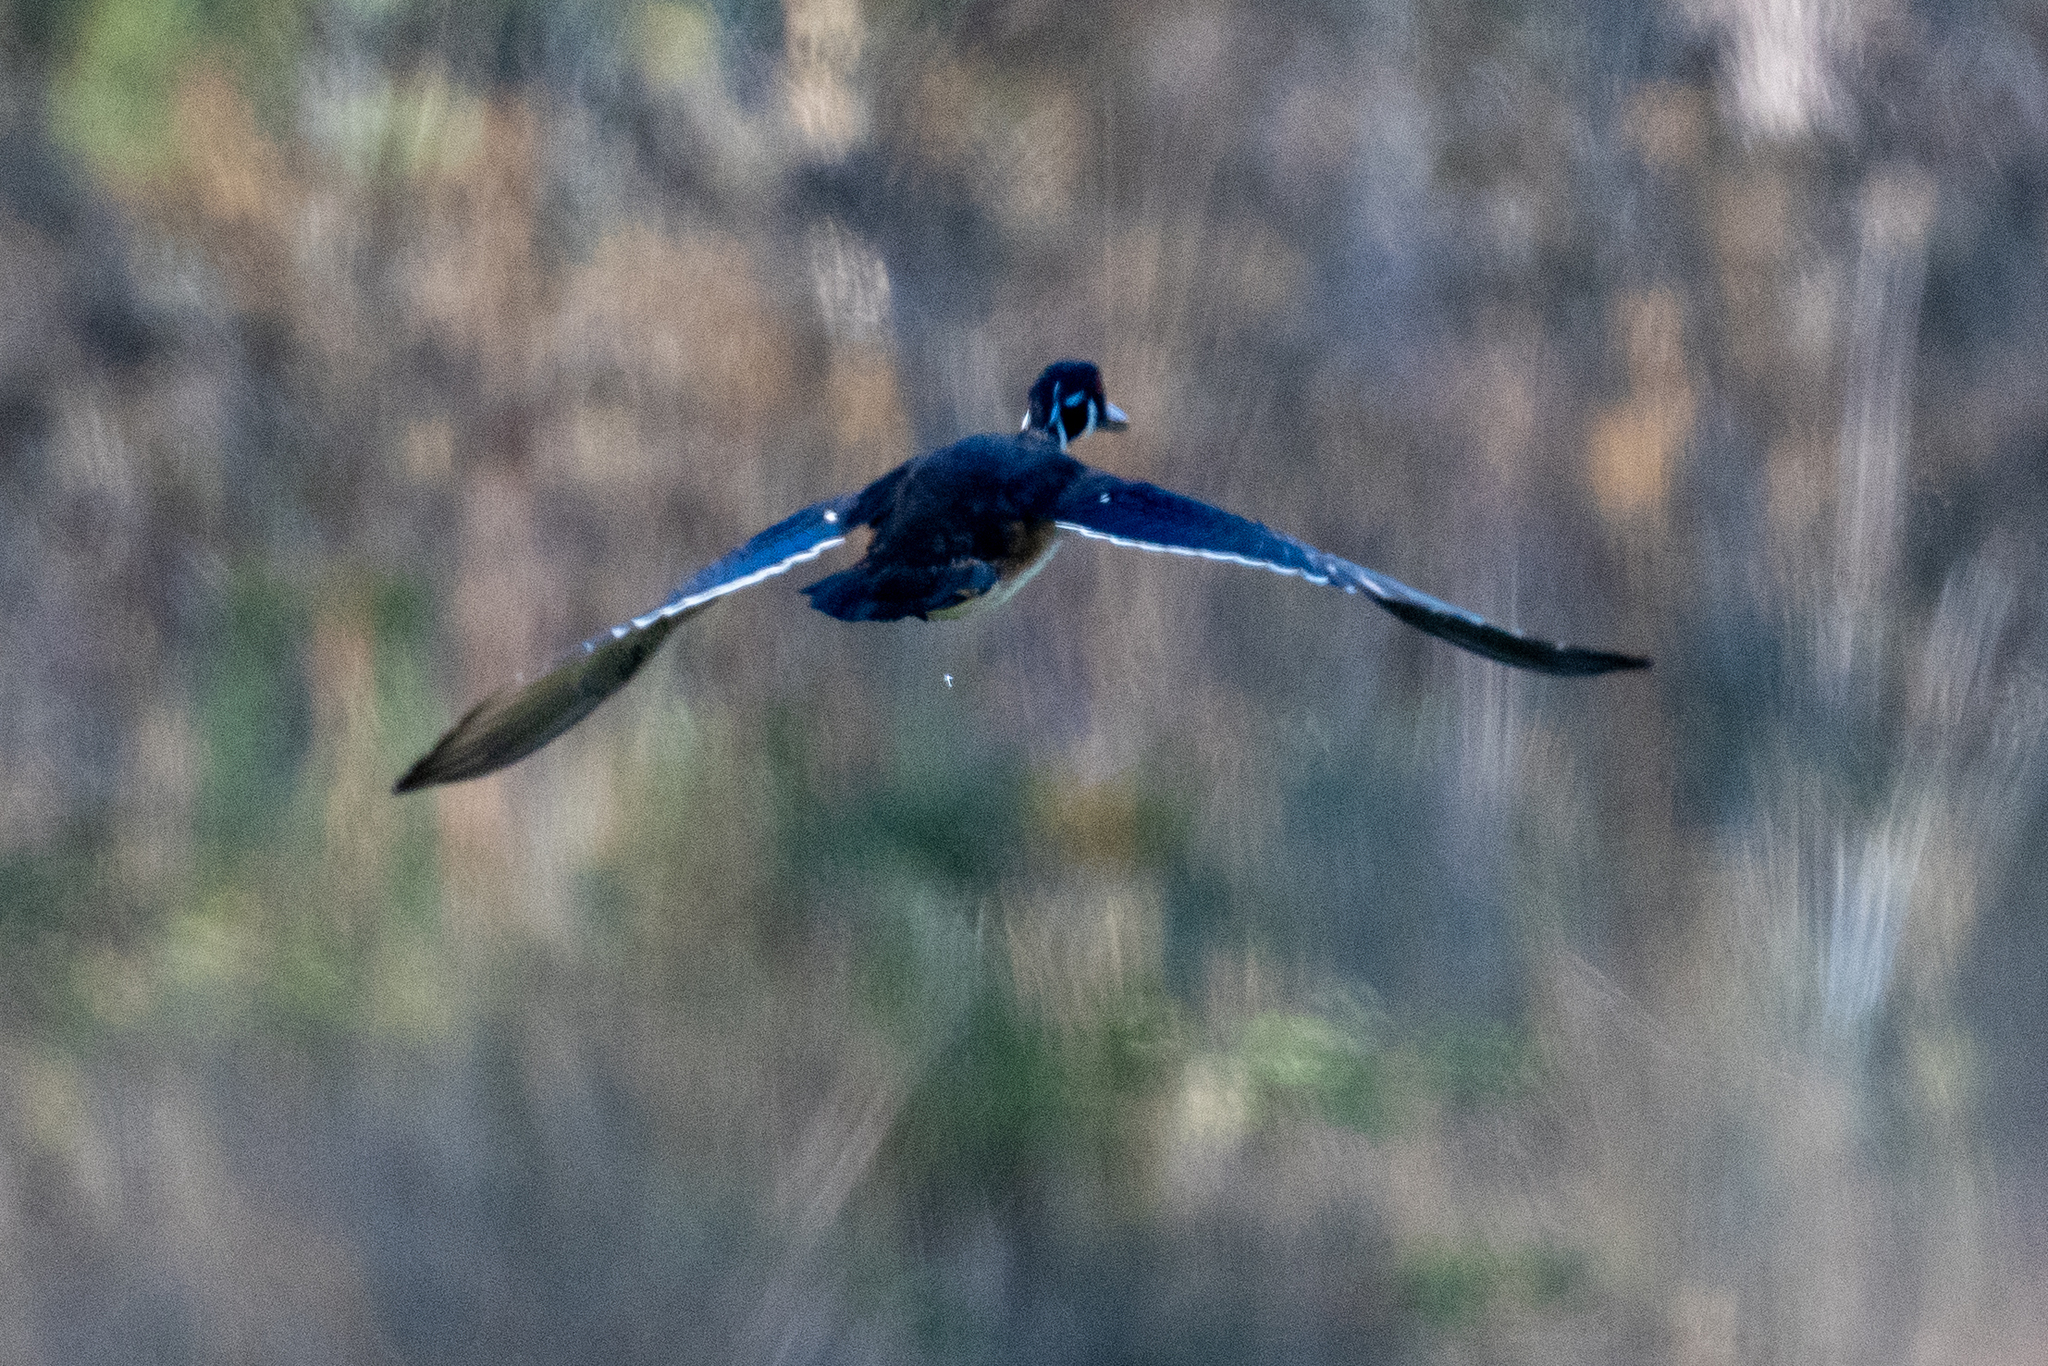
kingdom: Animalia
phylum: Chordata
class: Aves
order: Anseriformes
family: Anatidae
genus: Aix
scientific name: Aix sponsa
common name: Wood duck
